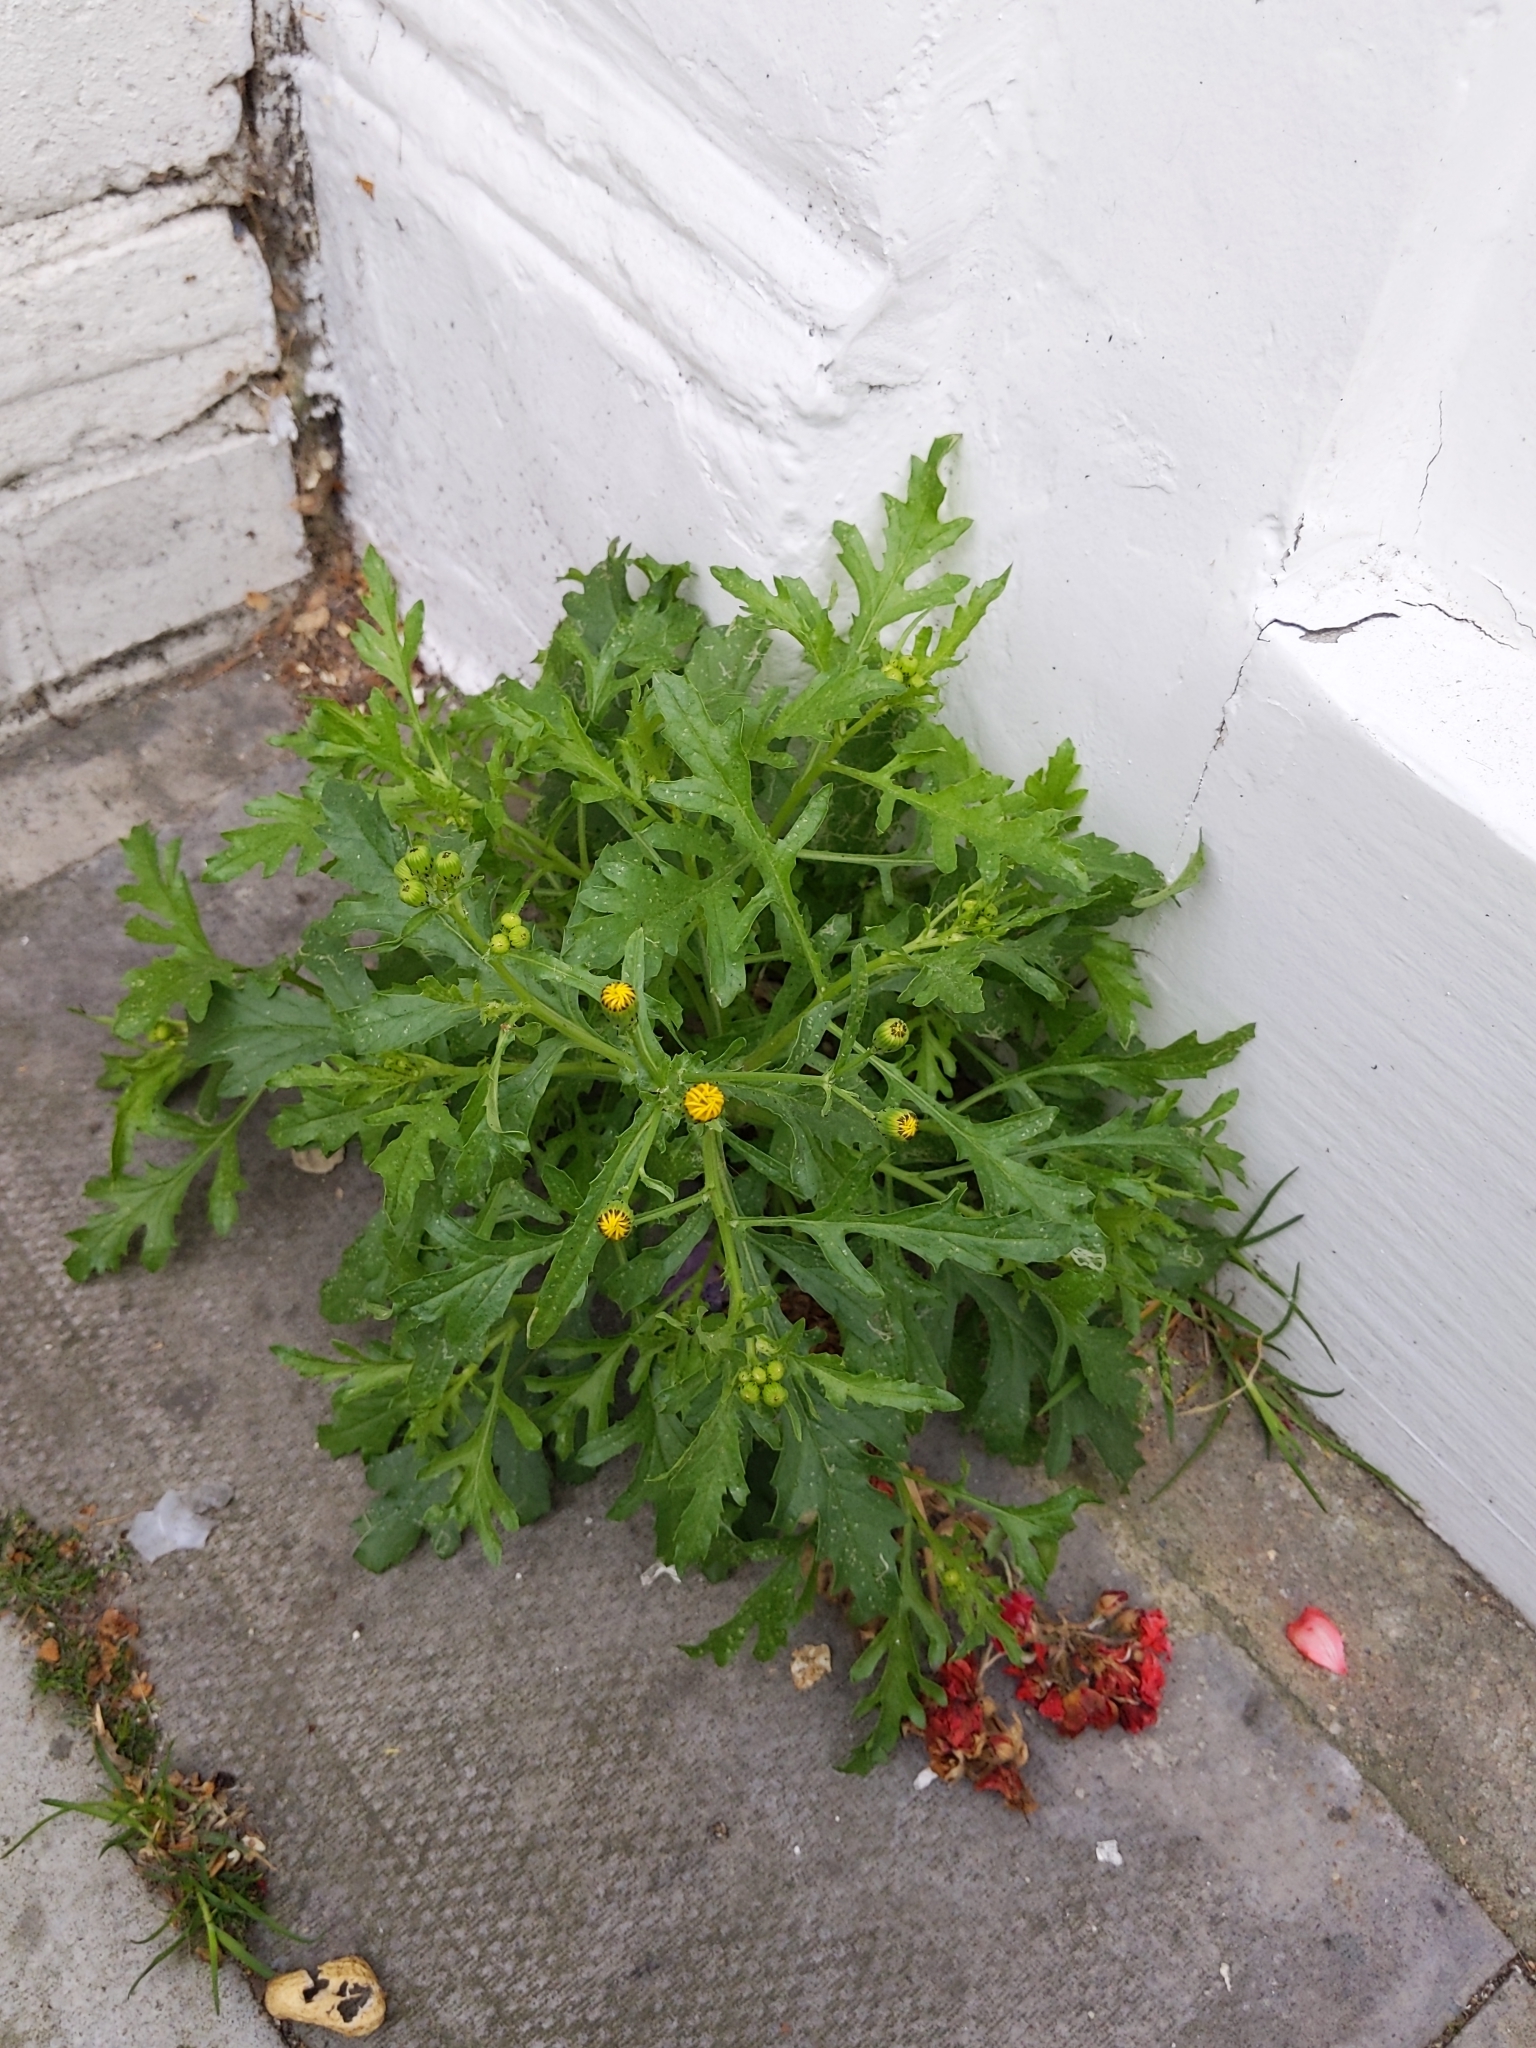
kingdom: Plantae
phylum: Tracheophyta
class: Magnoliopsida
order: Asterales
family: Asteraceae
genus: Senecio
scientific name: Senecio squalidus
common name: Oxford ragwort
